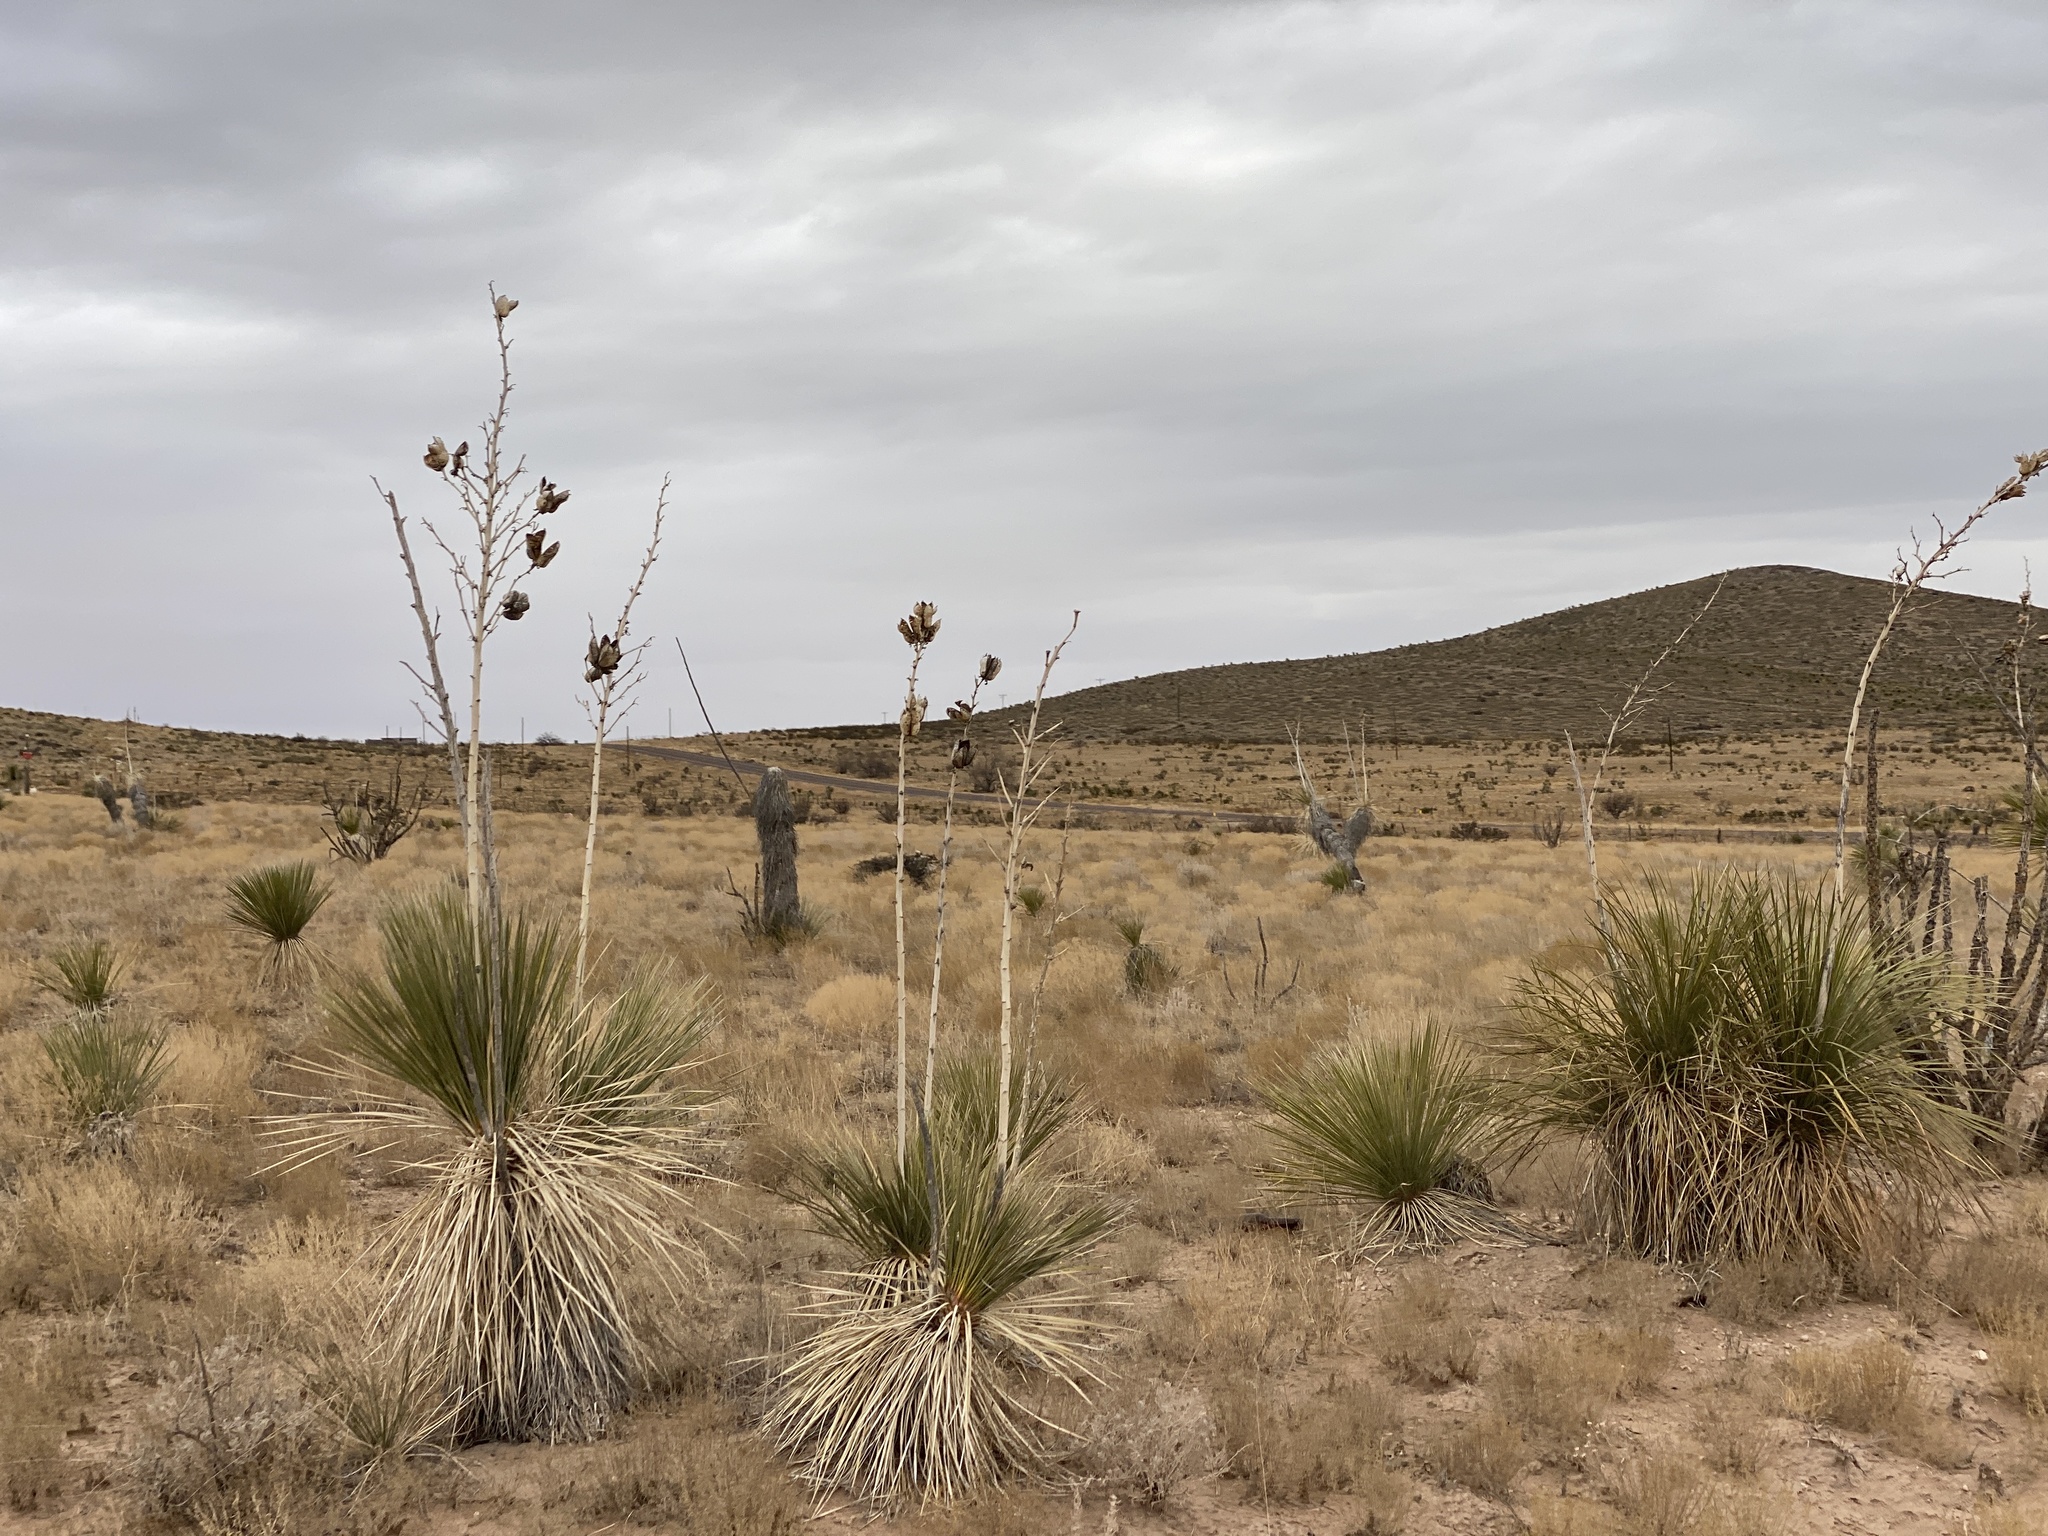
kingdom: Plantae
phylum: Tracheophyta
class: Liliopsida
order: Asparagales
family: Asparagaceae
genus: Yucca
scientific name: Yucca elata
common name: Palmella
